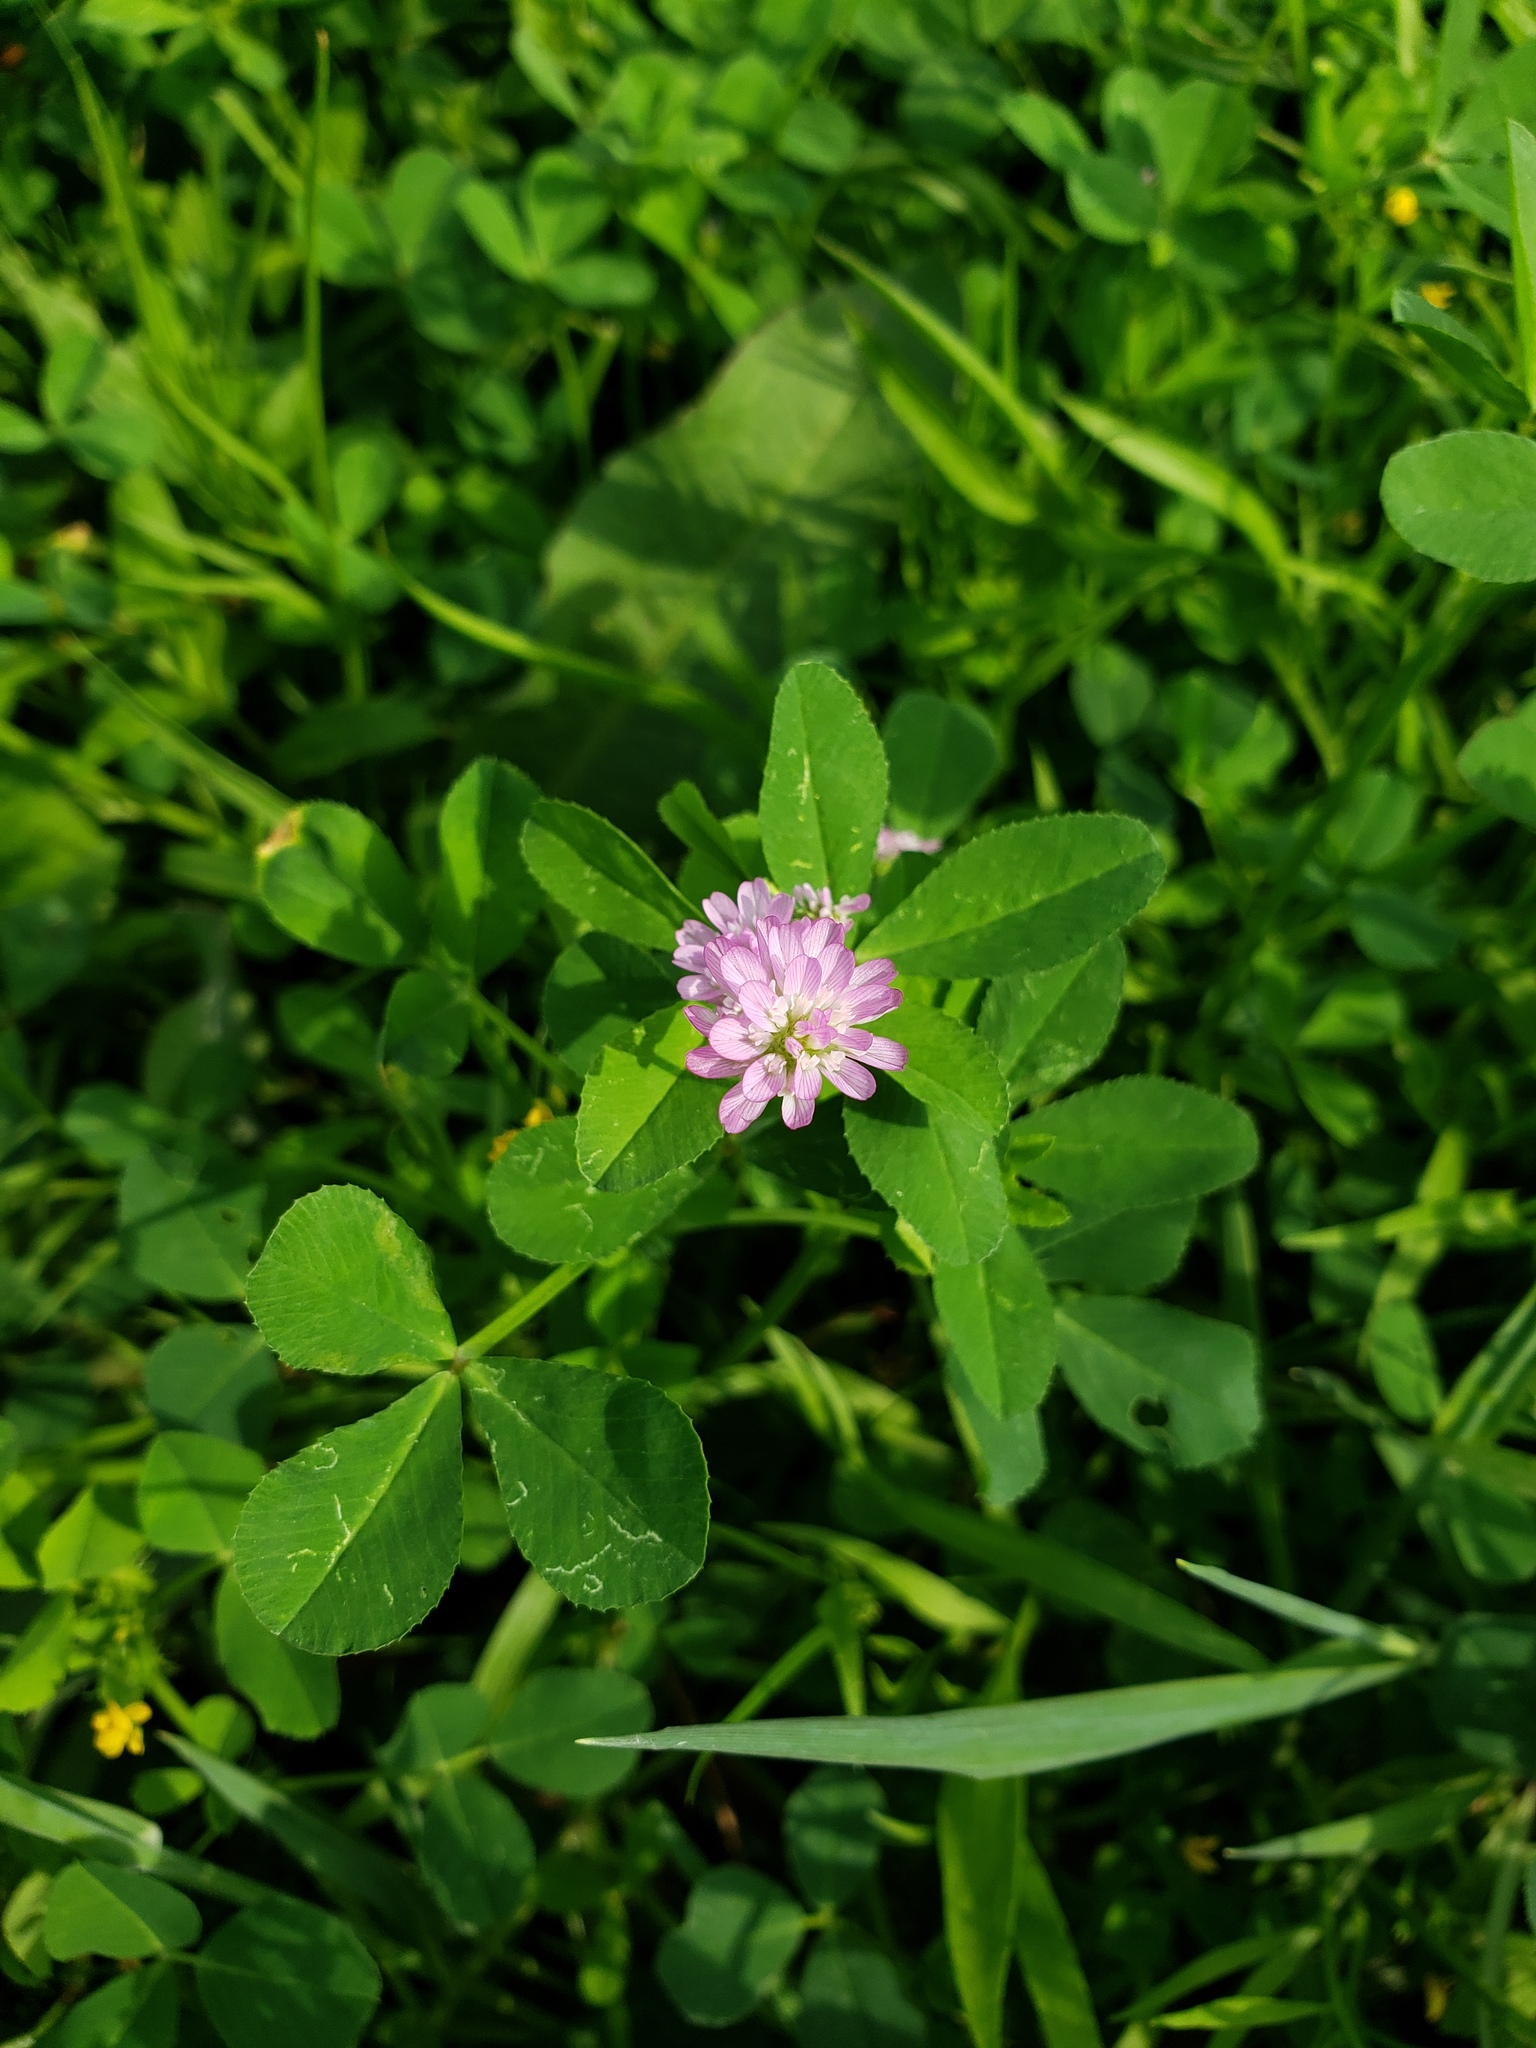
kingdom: Plantae
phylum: Tracheophyta
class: Magnoliopsida
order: Fabales
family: Fabaceae
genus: Trifolium
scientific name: Trifolium resupinatum
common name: Reversed clover
